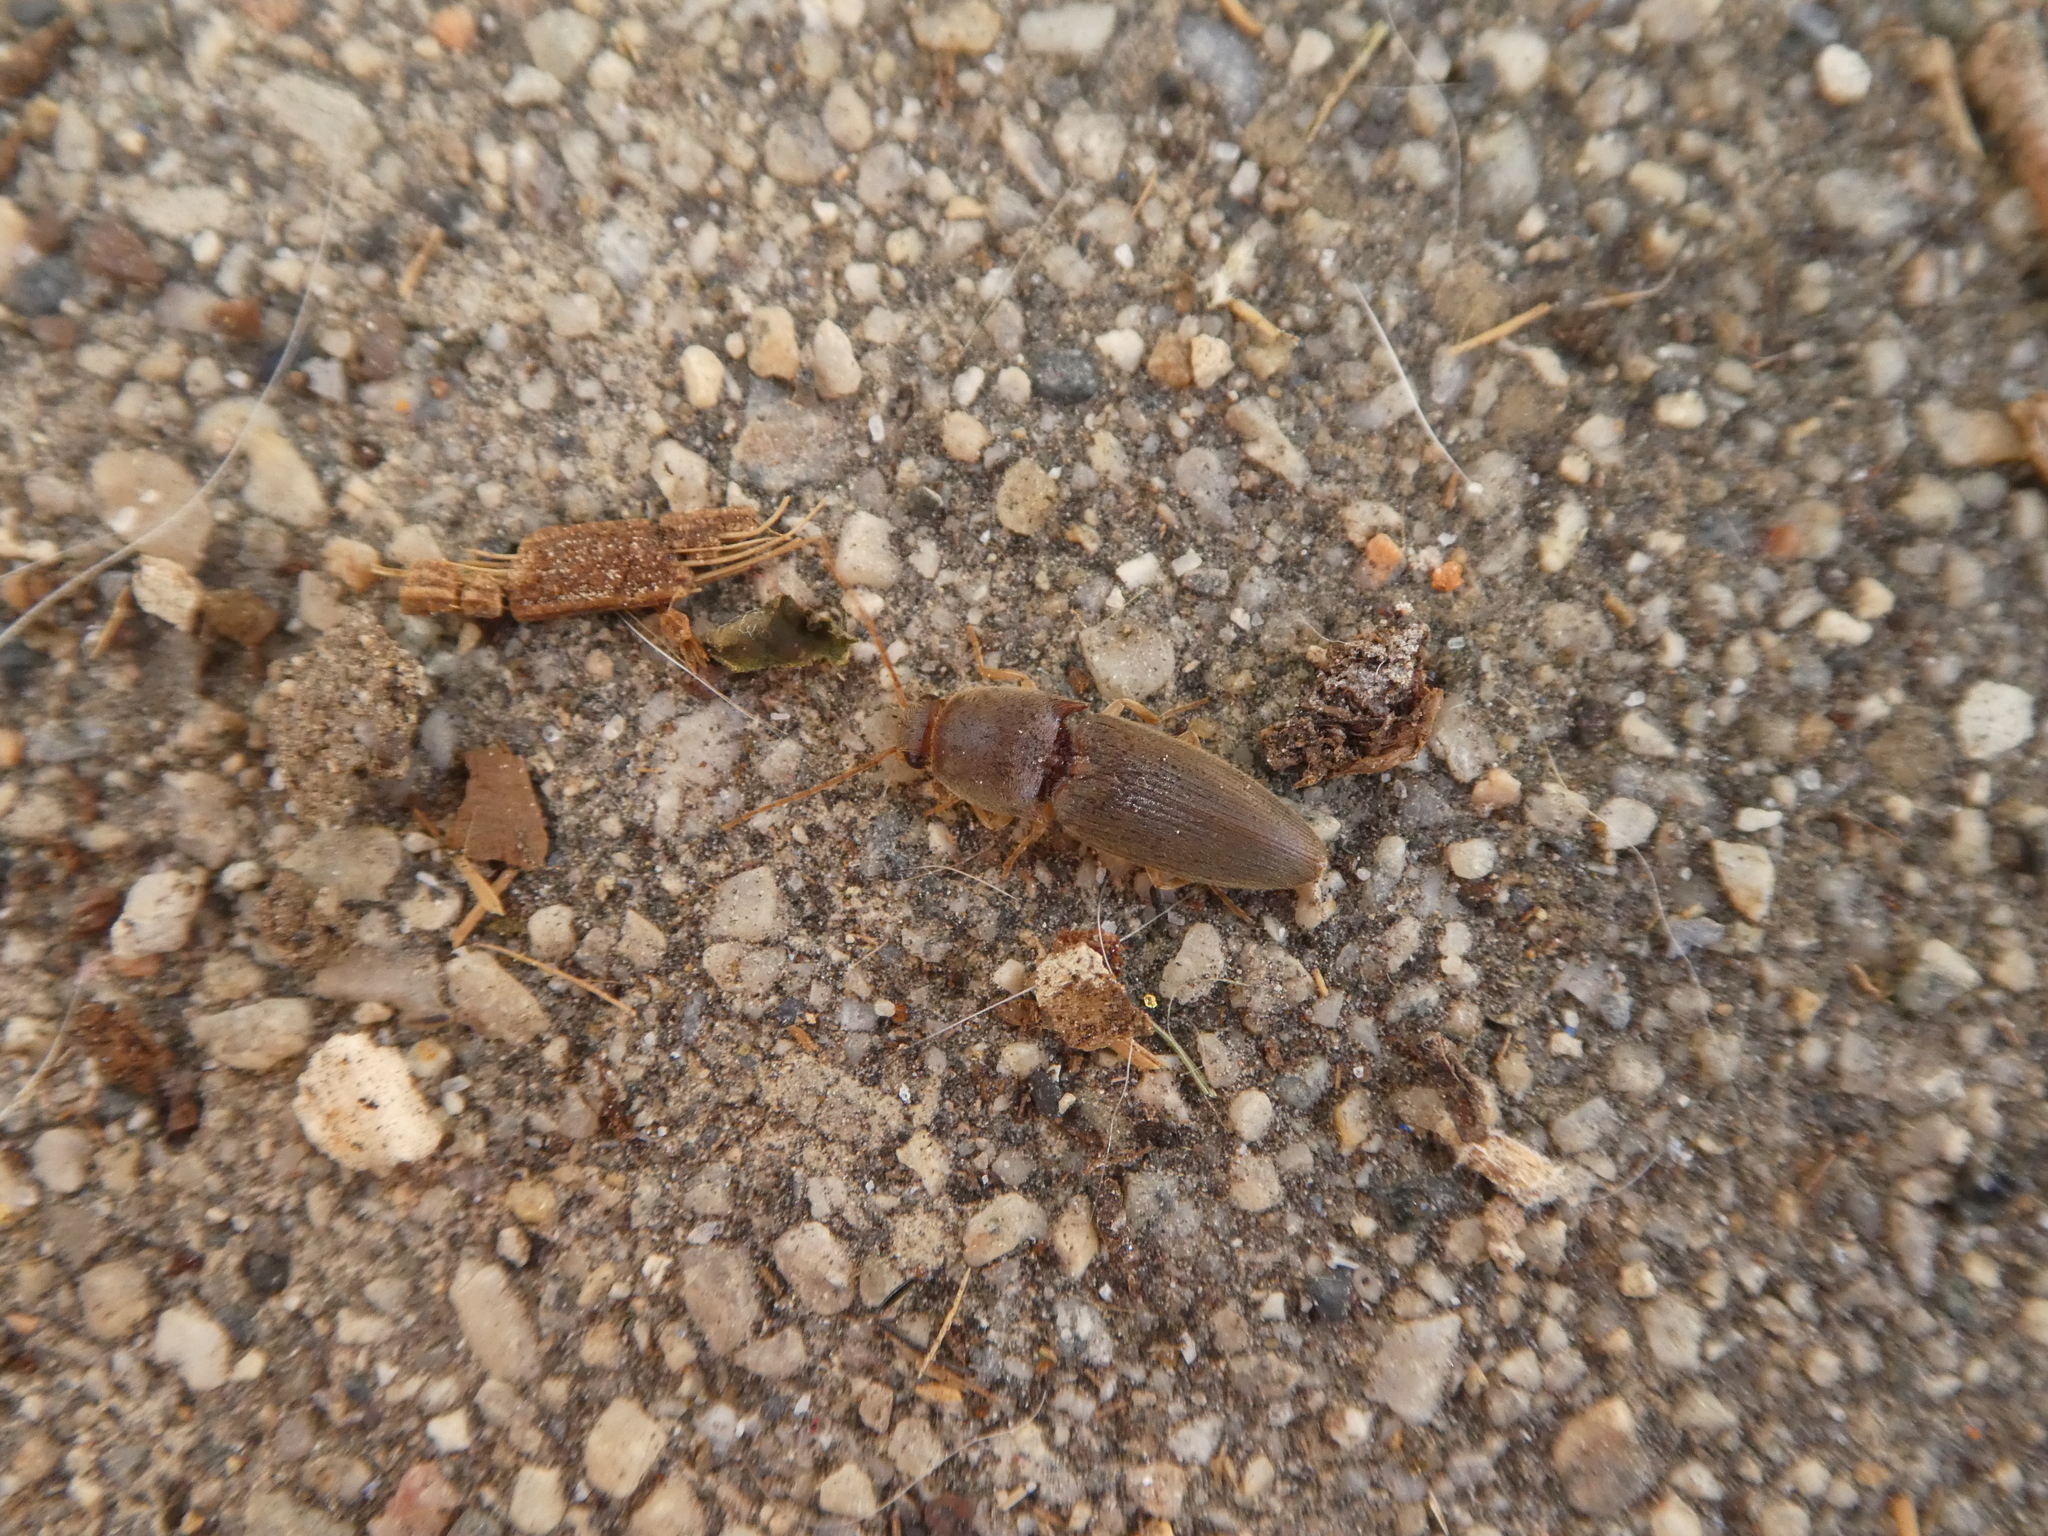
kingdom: Animalia
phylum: Arthropoda
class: Insecta
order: Coleoptera
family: Elateridae
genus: Conoderus
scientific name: Conoderus exsul
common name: Click beetle
